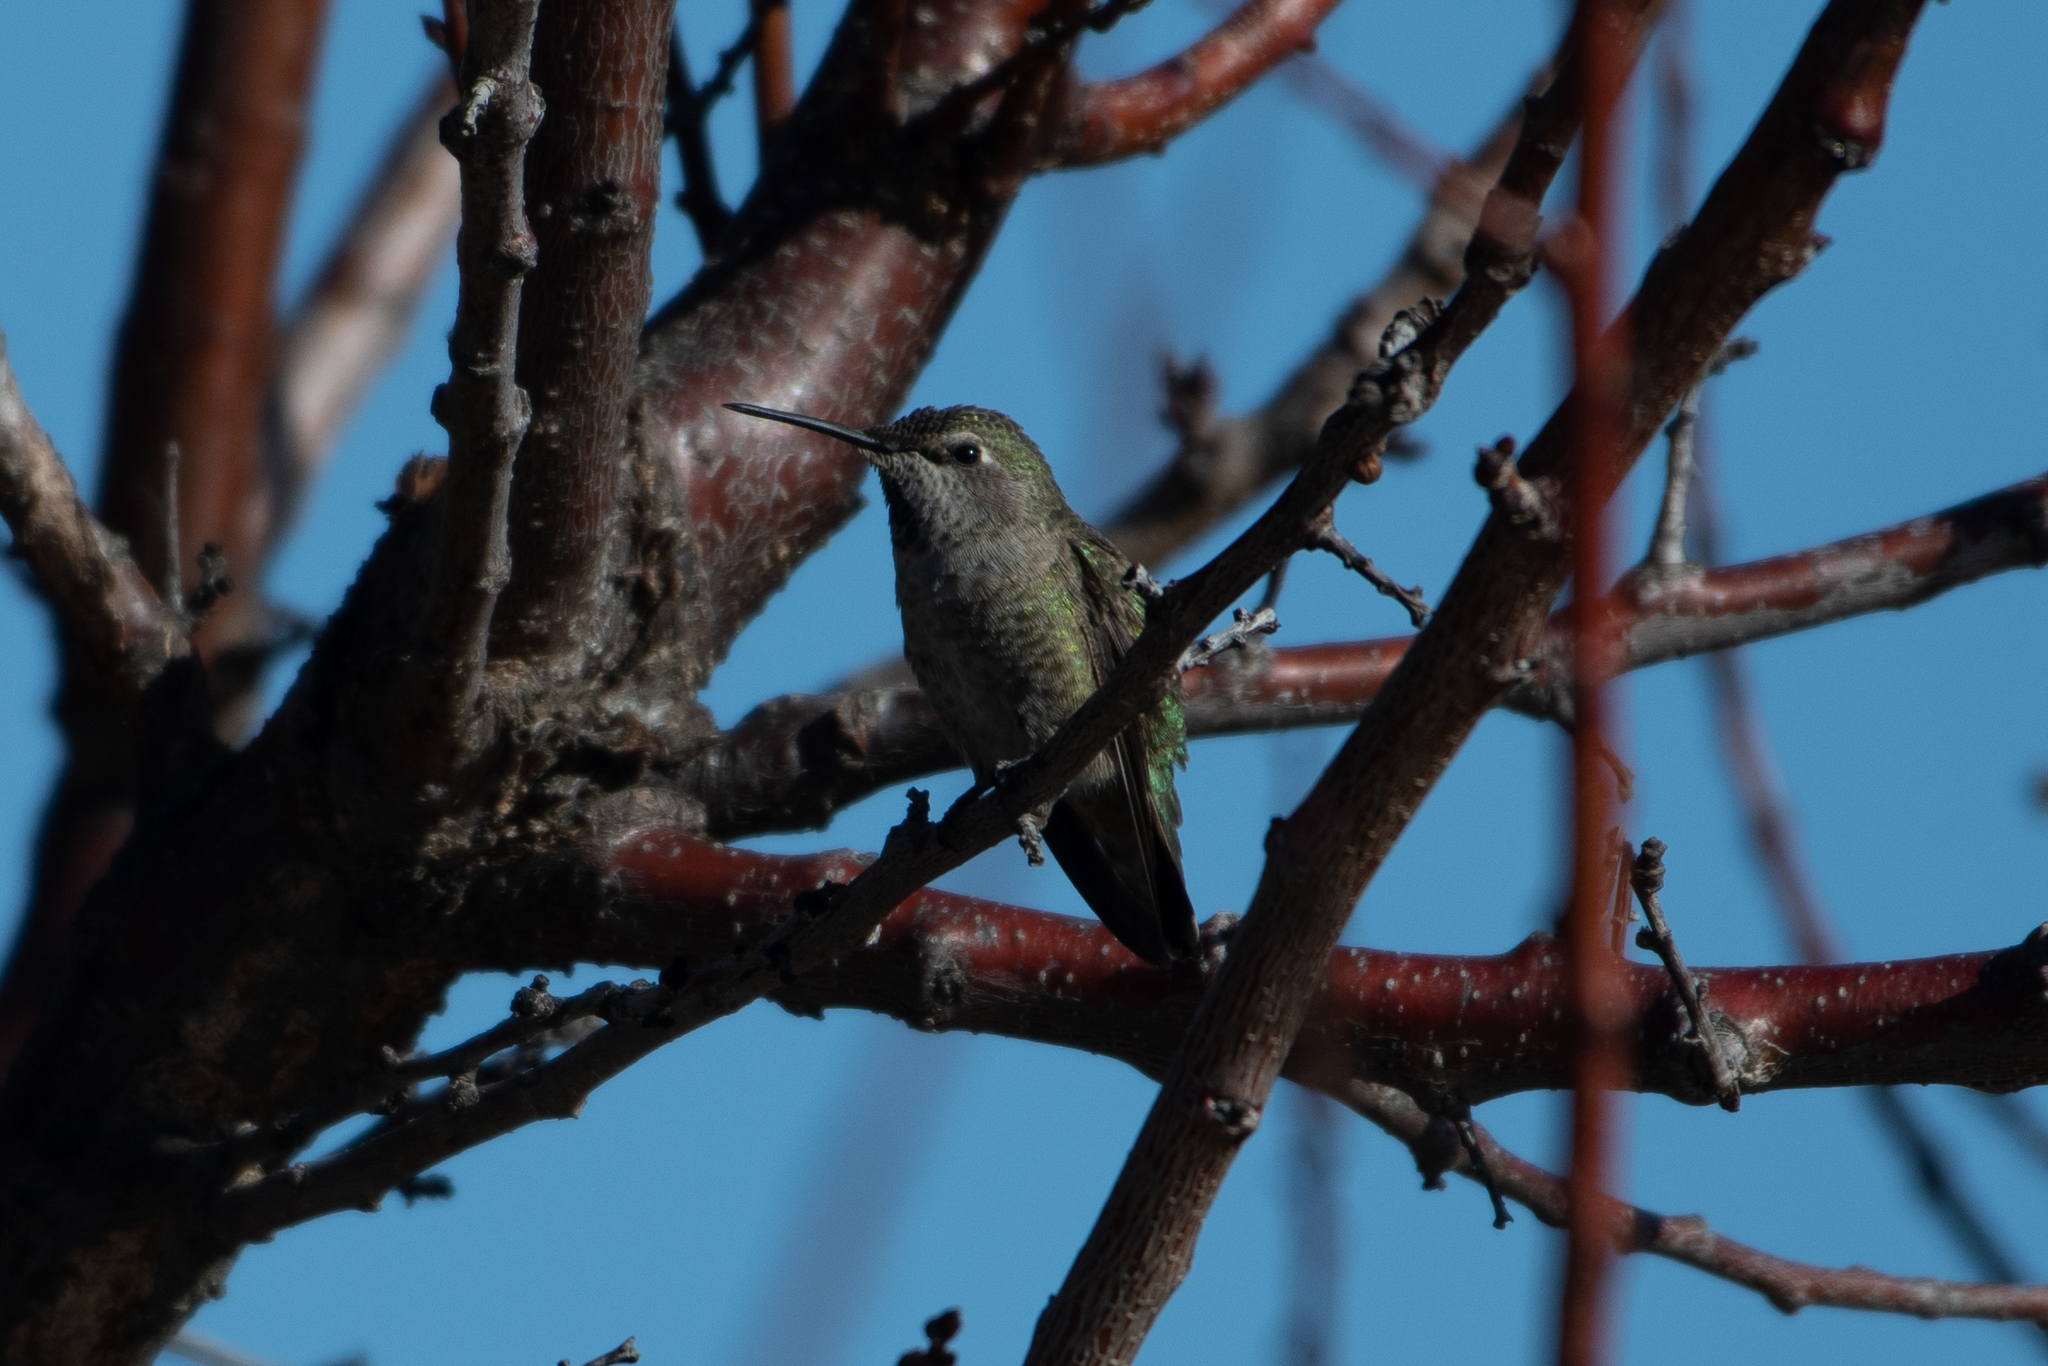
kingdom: Animalia
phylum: Chordata
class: Aves
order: Apodiformes
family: Trochilidae
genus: Calypte
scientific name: Calypte anna
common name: Anna's hummingbird
